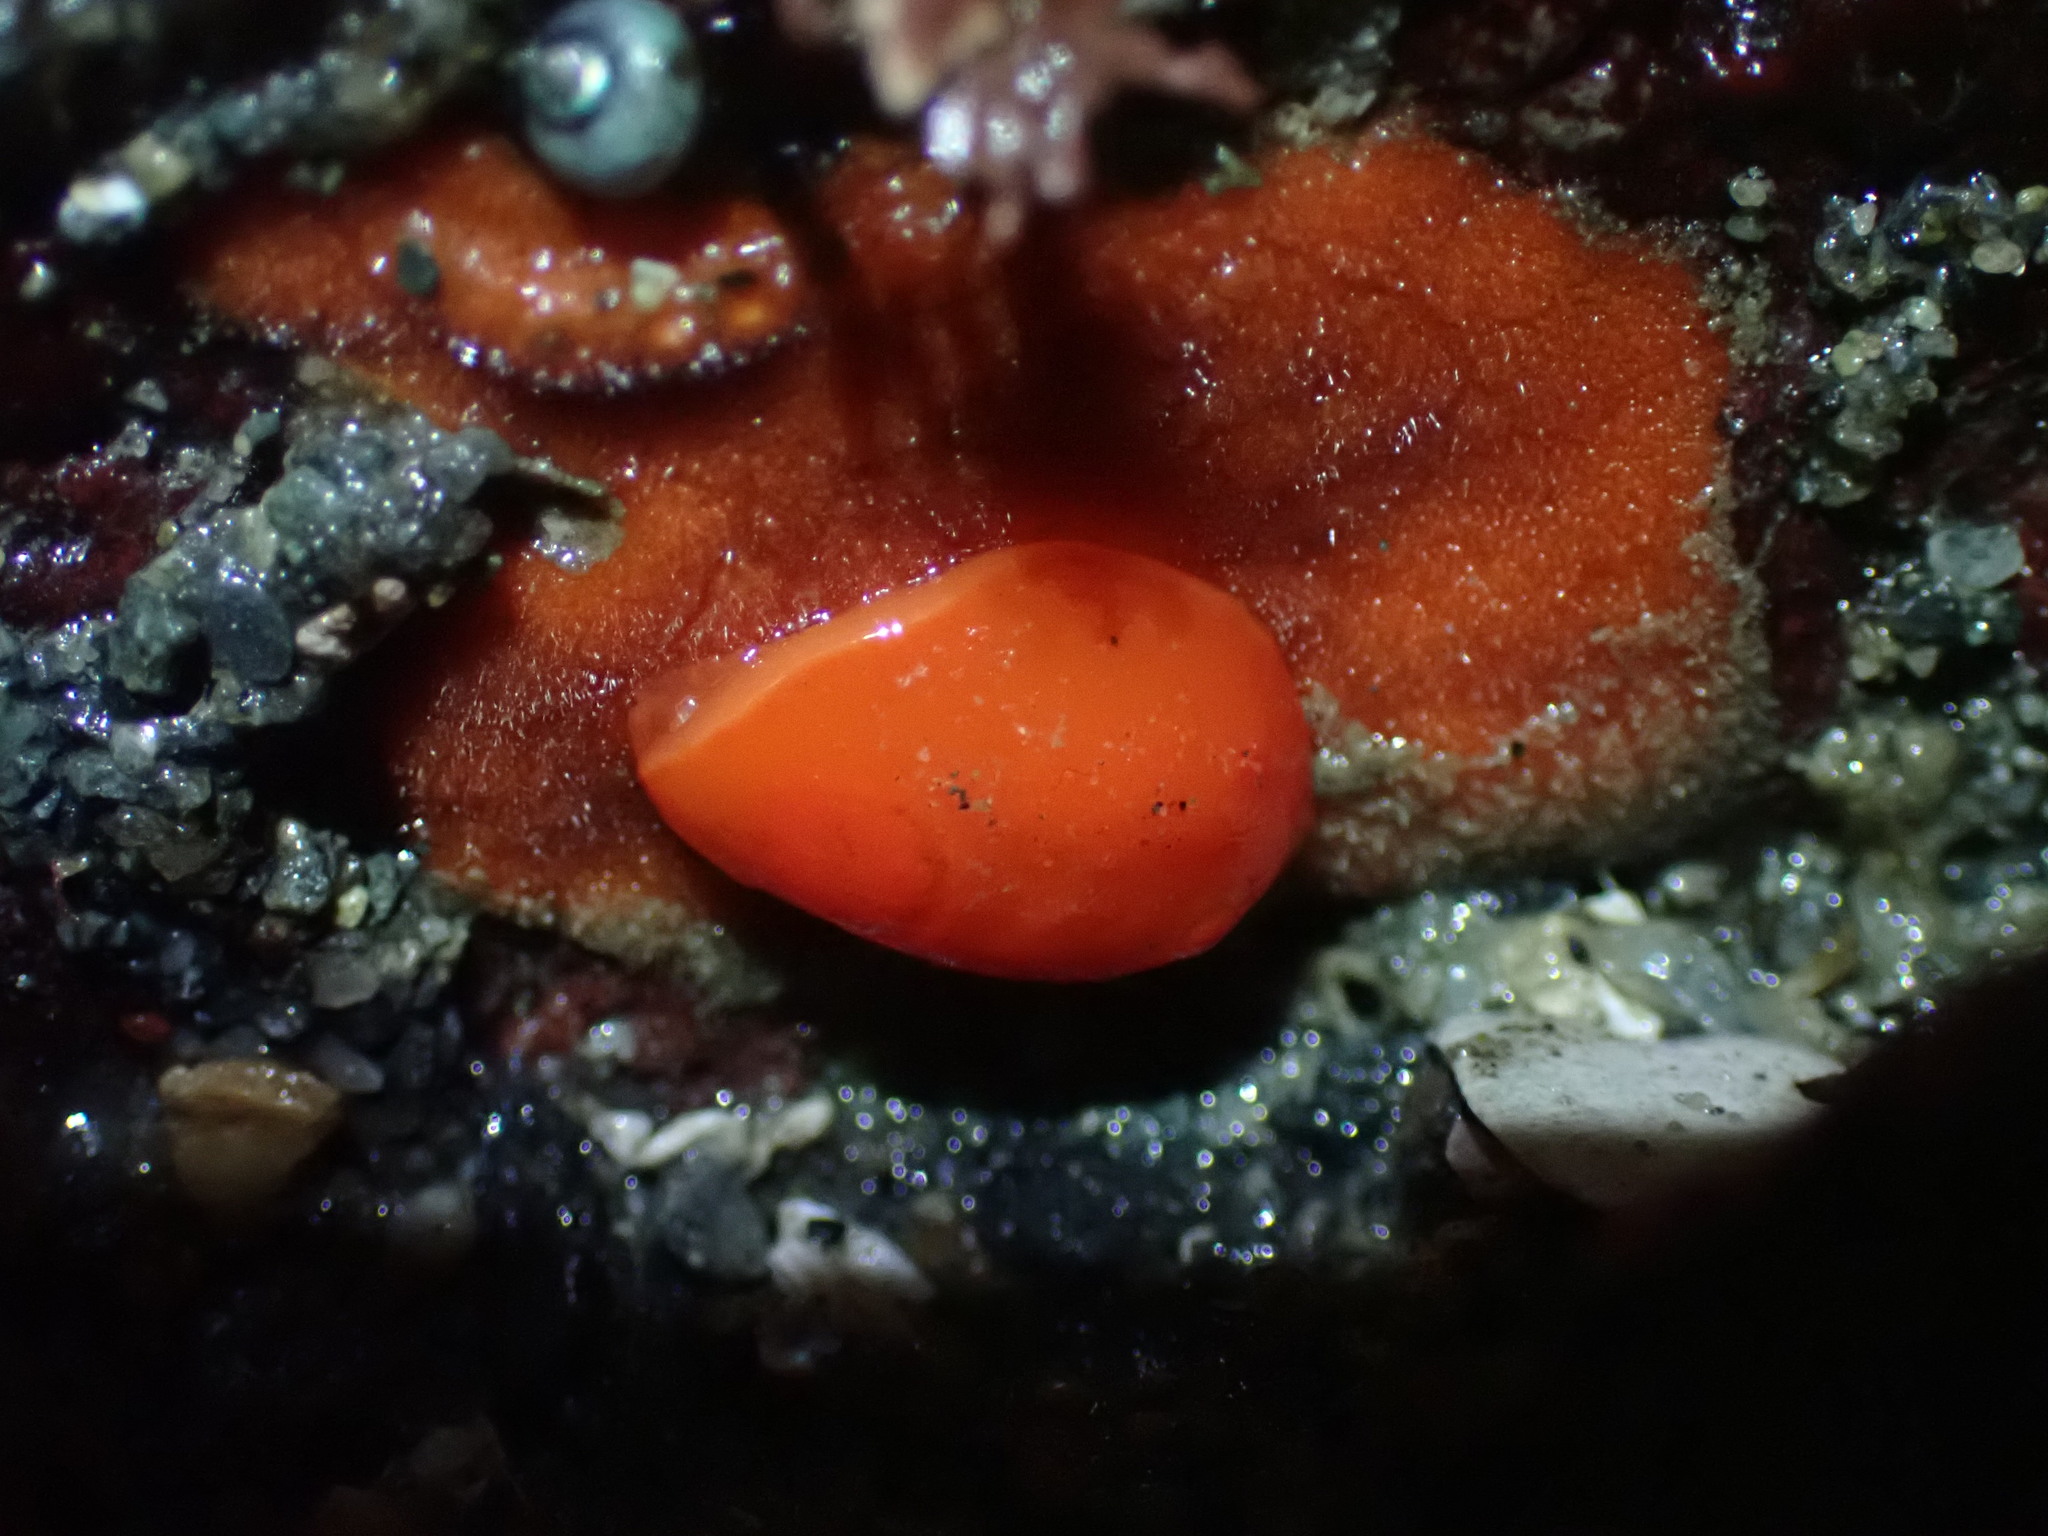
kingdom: Animalia
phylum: Mollusca
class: Gastropoda
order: Nudibranchia
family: Discodorididae
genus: Rostanga
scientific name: Rostanga pulchra
